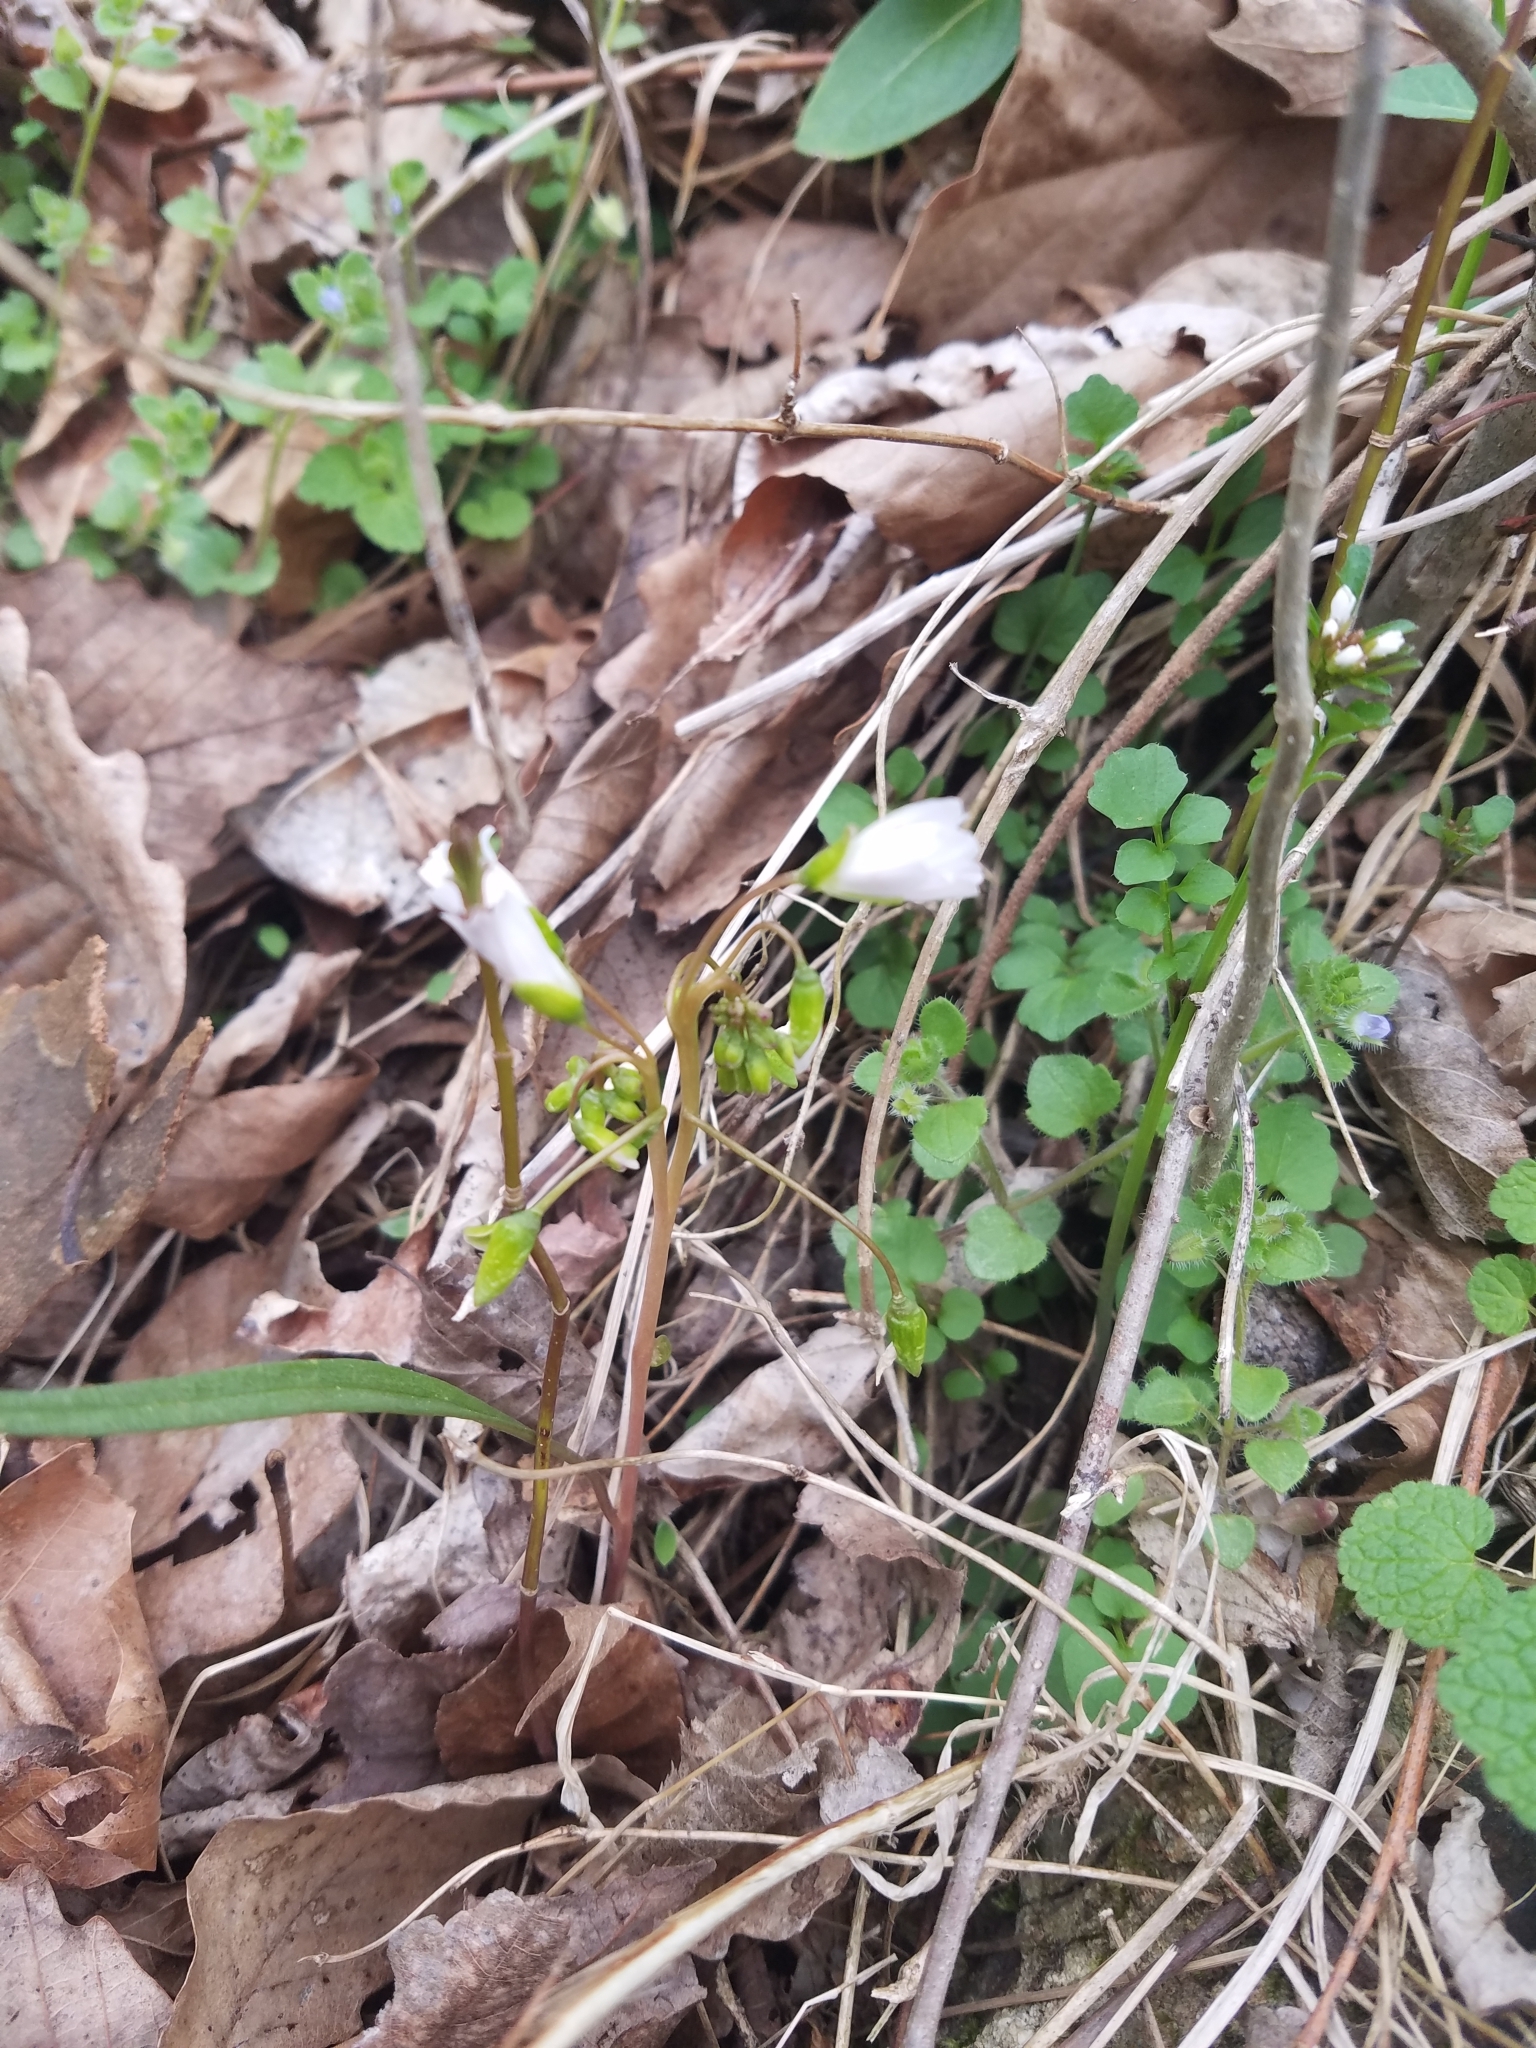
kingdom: Plantae
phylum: Tracheophyta
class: Magnoliopsida
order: Caryophyllales
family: Montiaceae
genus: Claytonia
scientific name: Claytonia virginica
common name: Virginia springbeauty
